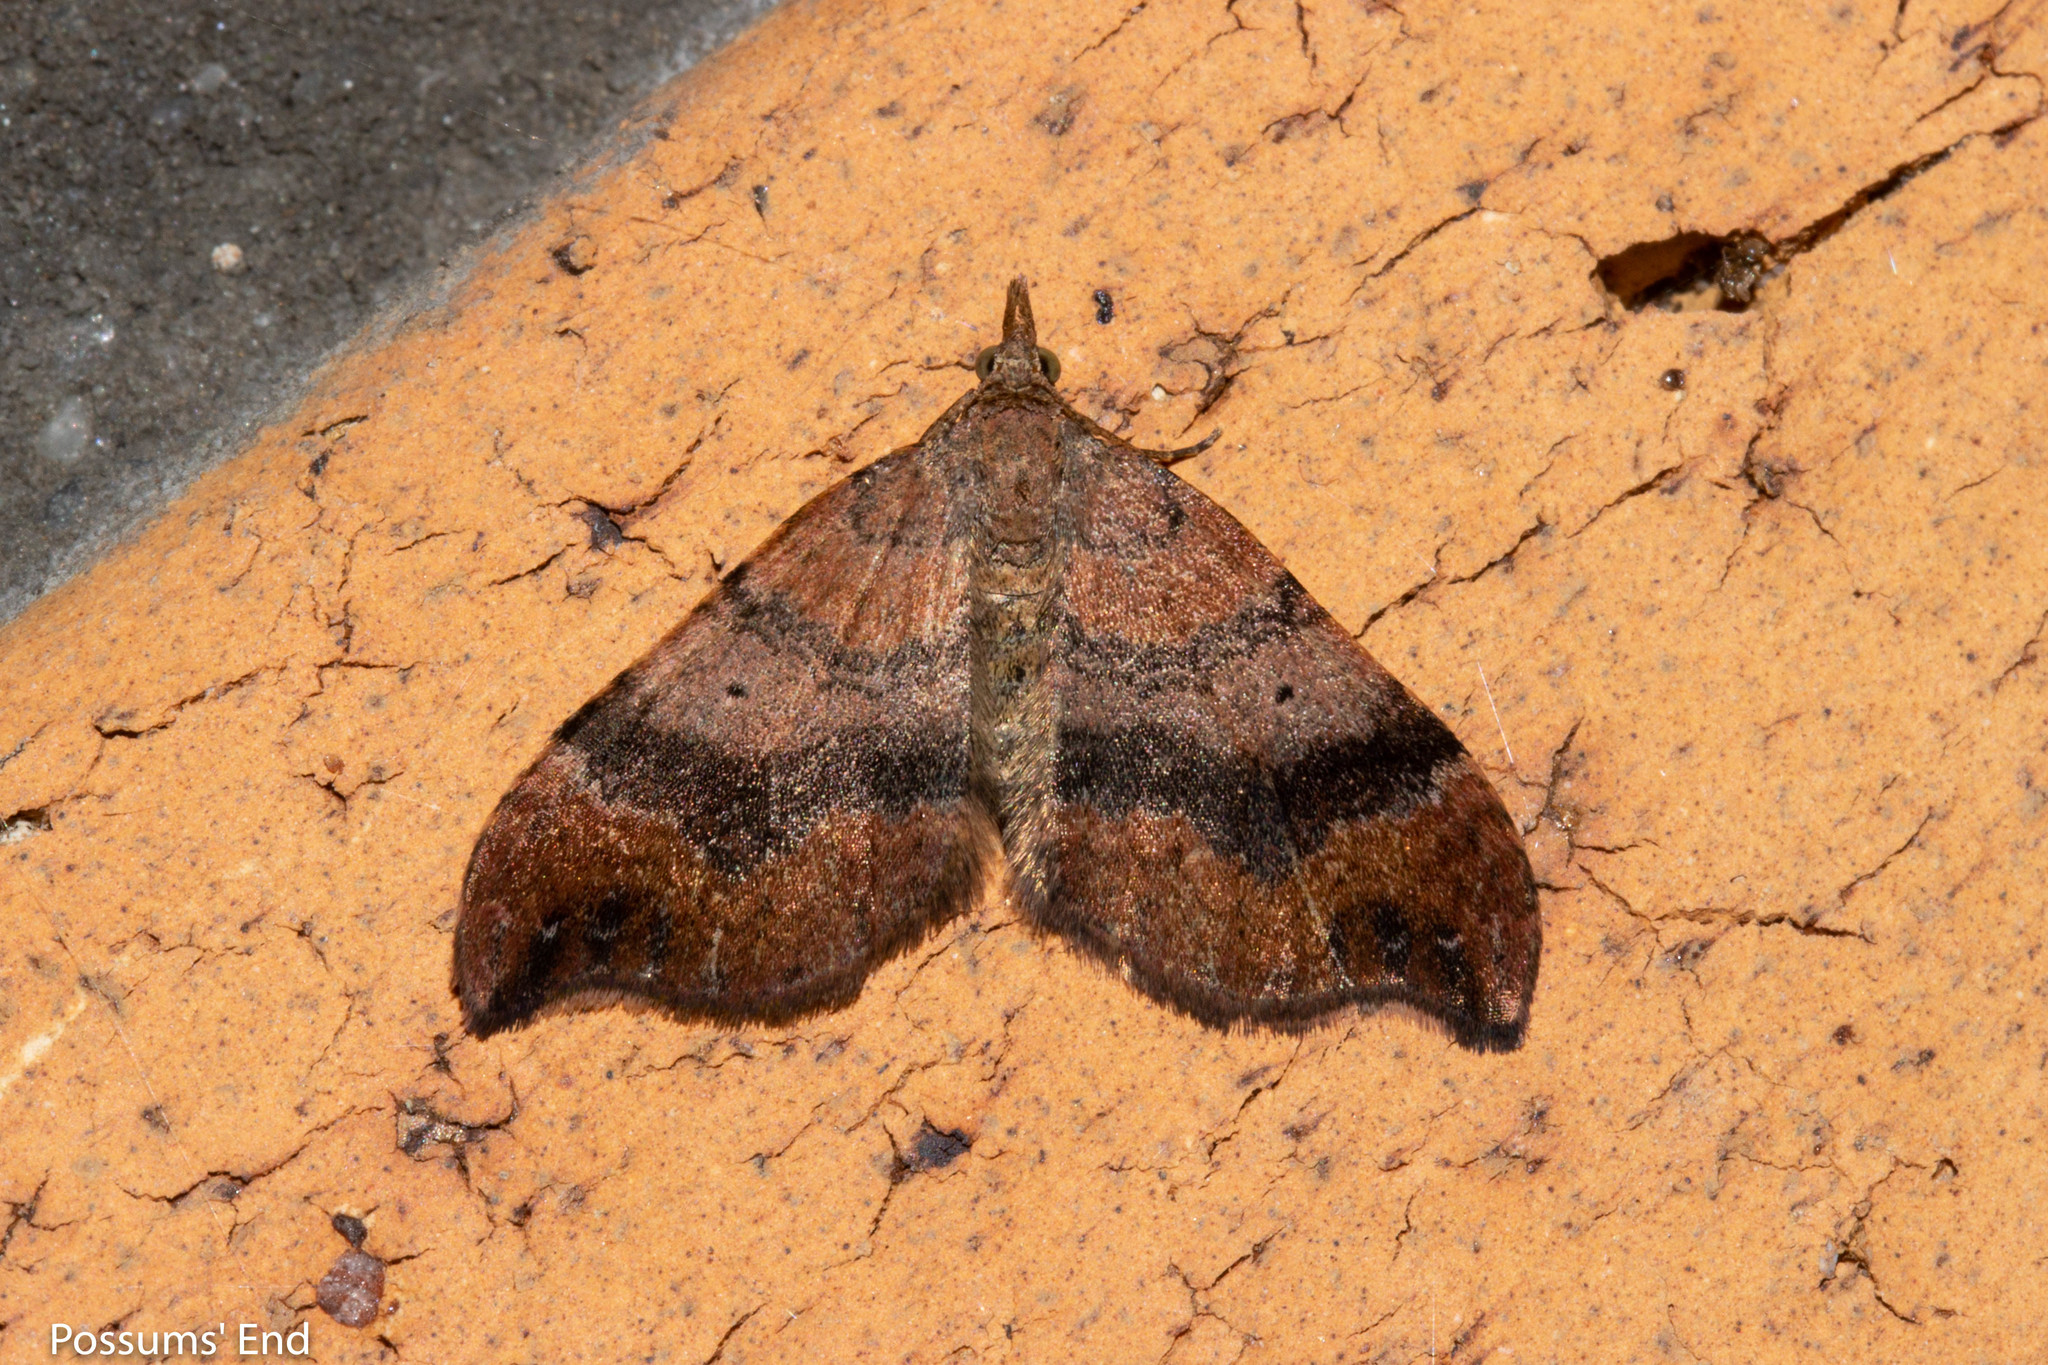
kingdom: Animalia
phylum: Arthropoda
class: Insecta
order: Lepidoptera
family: Geometridae
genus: Homodotis
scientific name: Homodotis megaspilata
